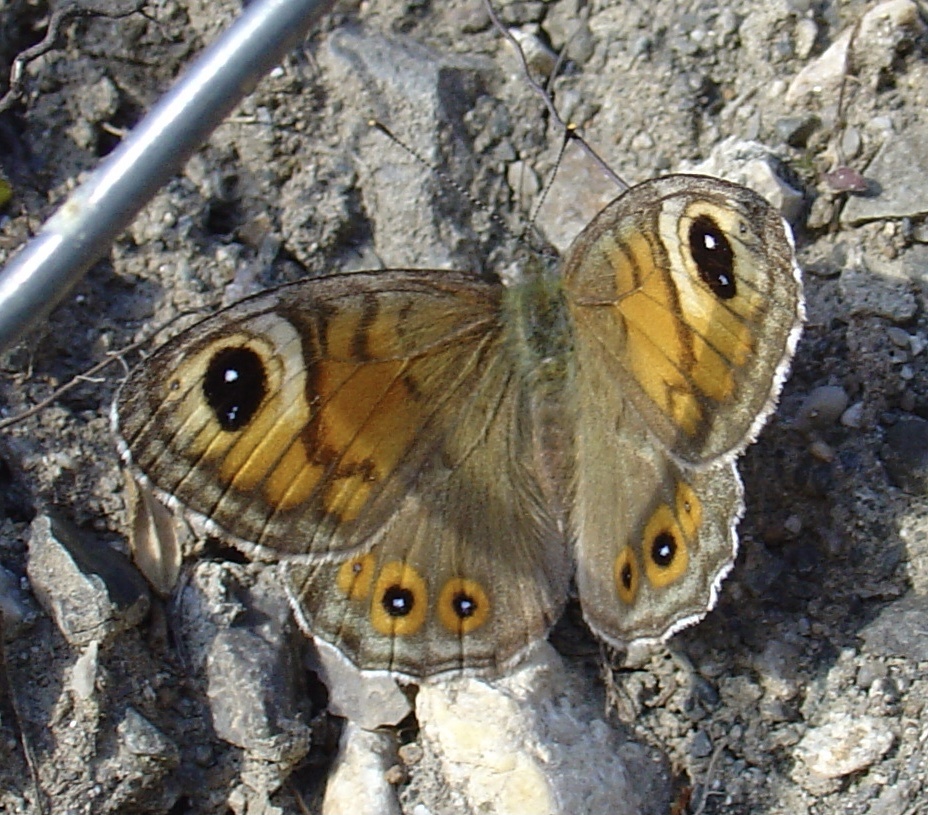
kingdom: Animalia
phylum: Arthropoda
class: Insecta
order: Lepidoptera
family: Nymphalidae
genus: Pararge
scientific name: Pararge Lasiommata maera
